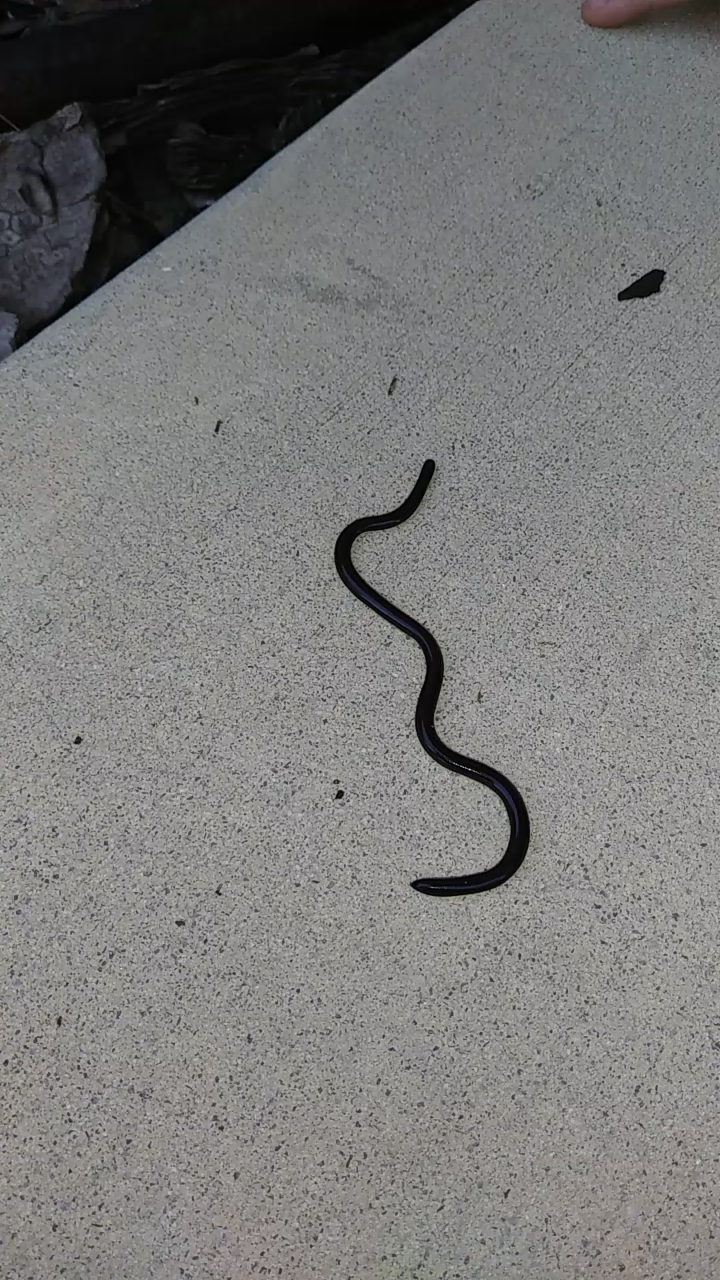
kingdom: Animalia
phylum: Chordata
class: Squamata
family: Typhlopidae
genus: Indotyphlops
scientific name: Indotyphlops braminus
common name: Brahminy blindsnake
